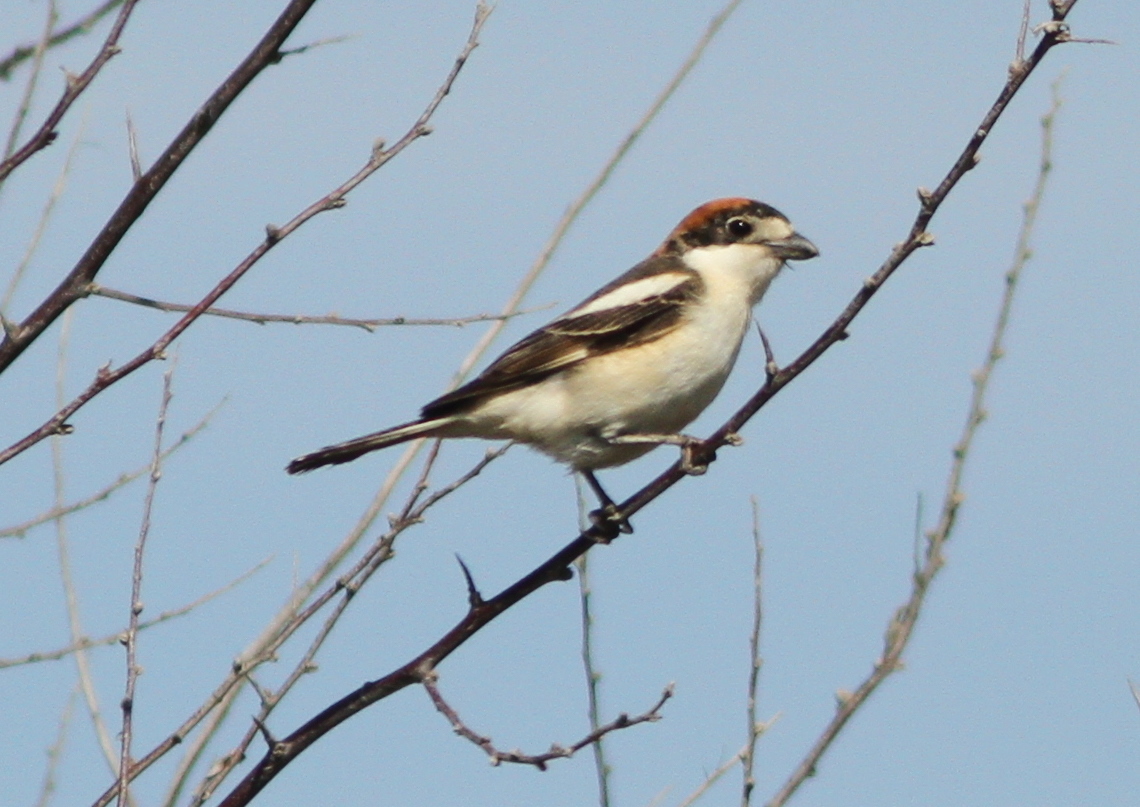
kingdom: Animalia
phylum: Chordata
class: Aves
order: Passeriformes
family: Laniidae
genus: Lanius
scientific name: Lanius senator
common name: Woodchat shrike
